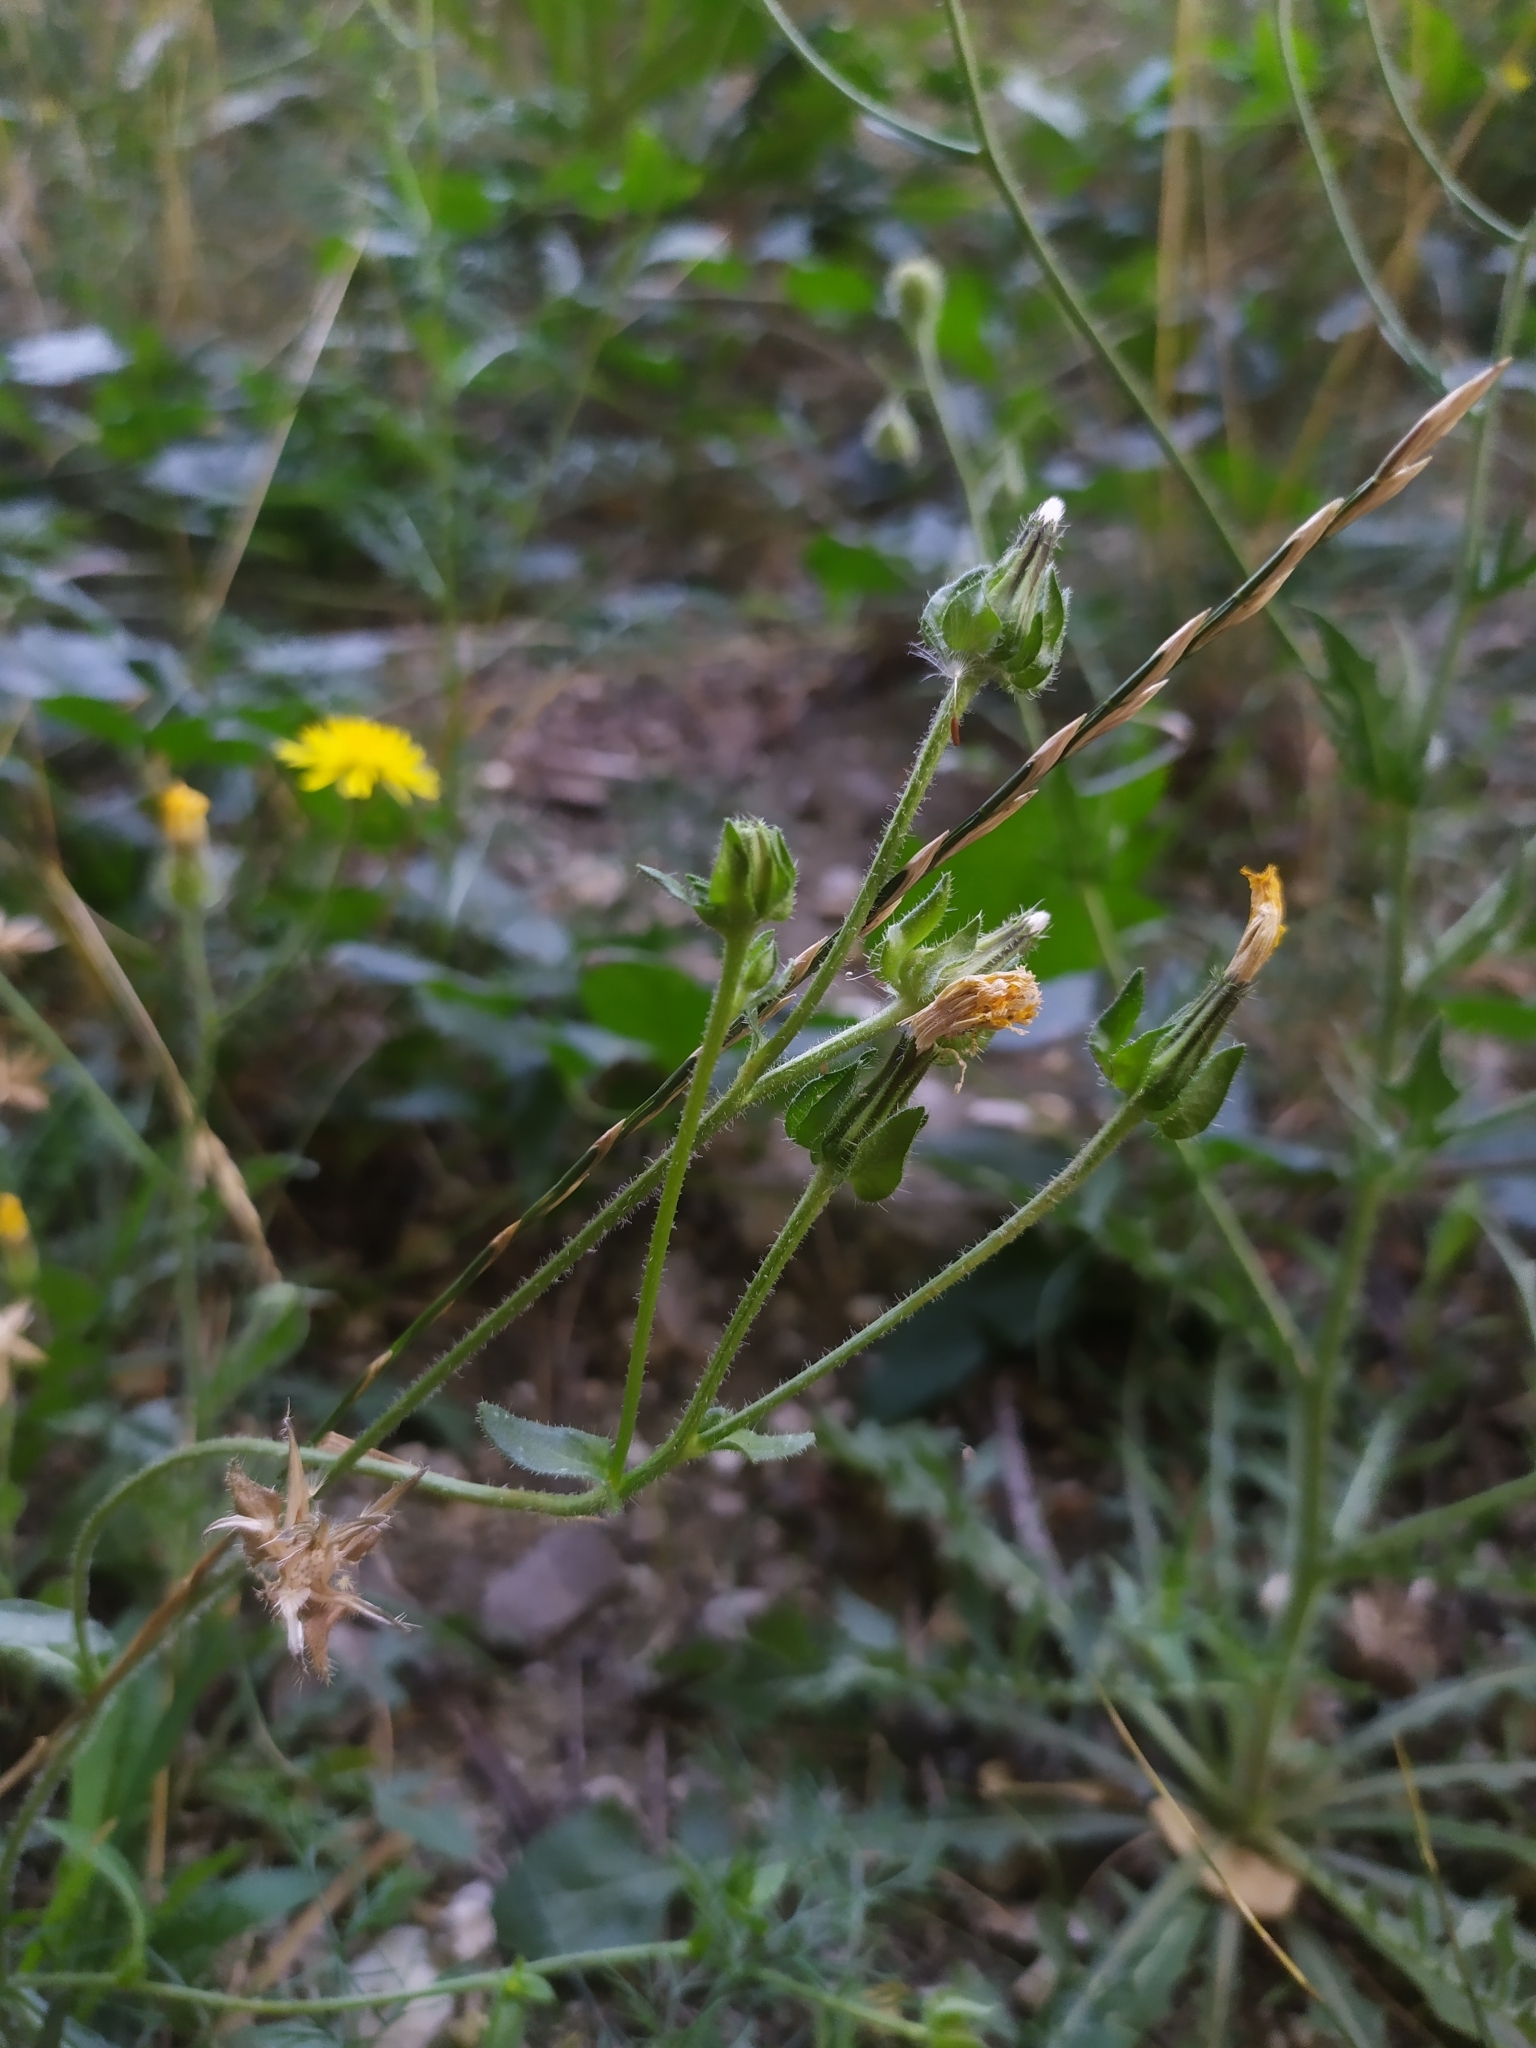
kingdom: Plantae
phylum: Tracheophyta
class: Magnoliopsida
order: Asterales
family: Asteraceae
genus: Helminthotheca
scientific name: Helminthotheca echioides
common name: Ox-tongue
